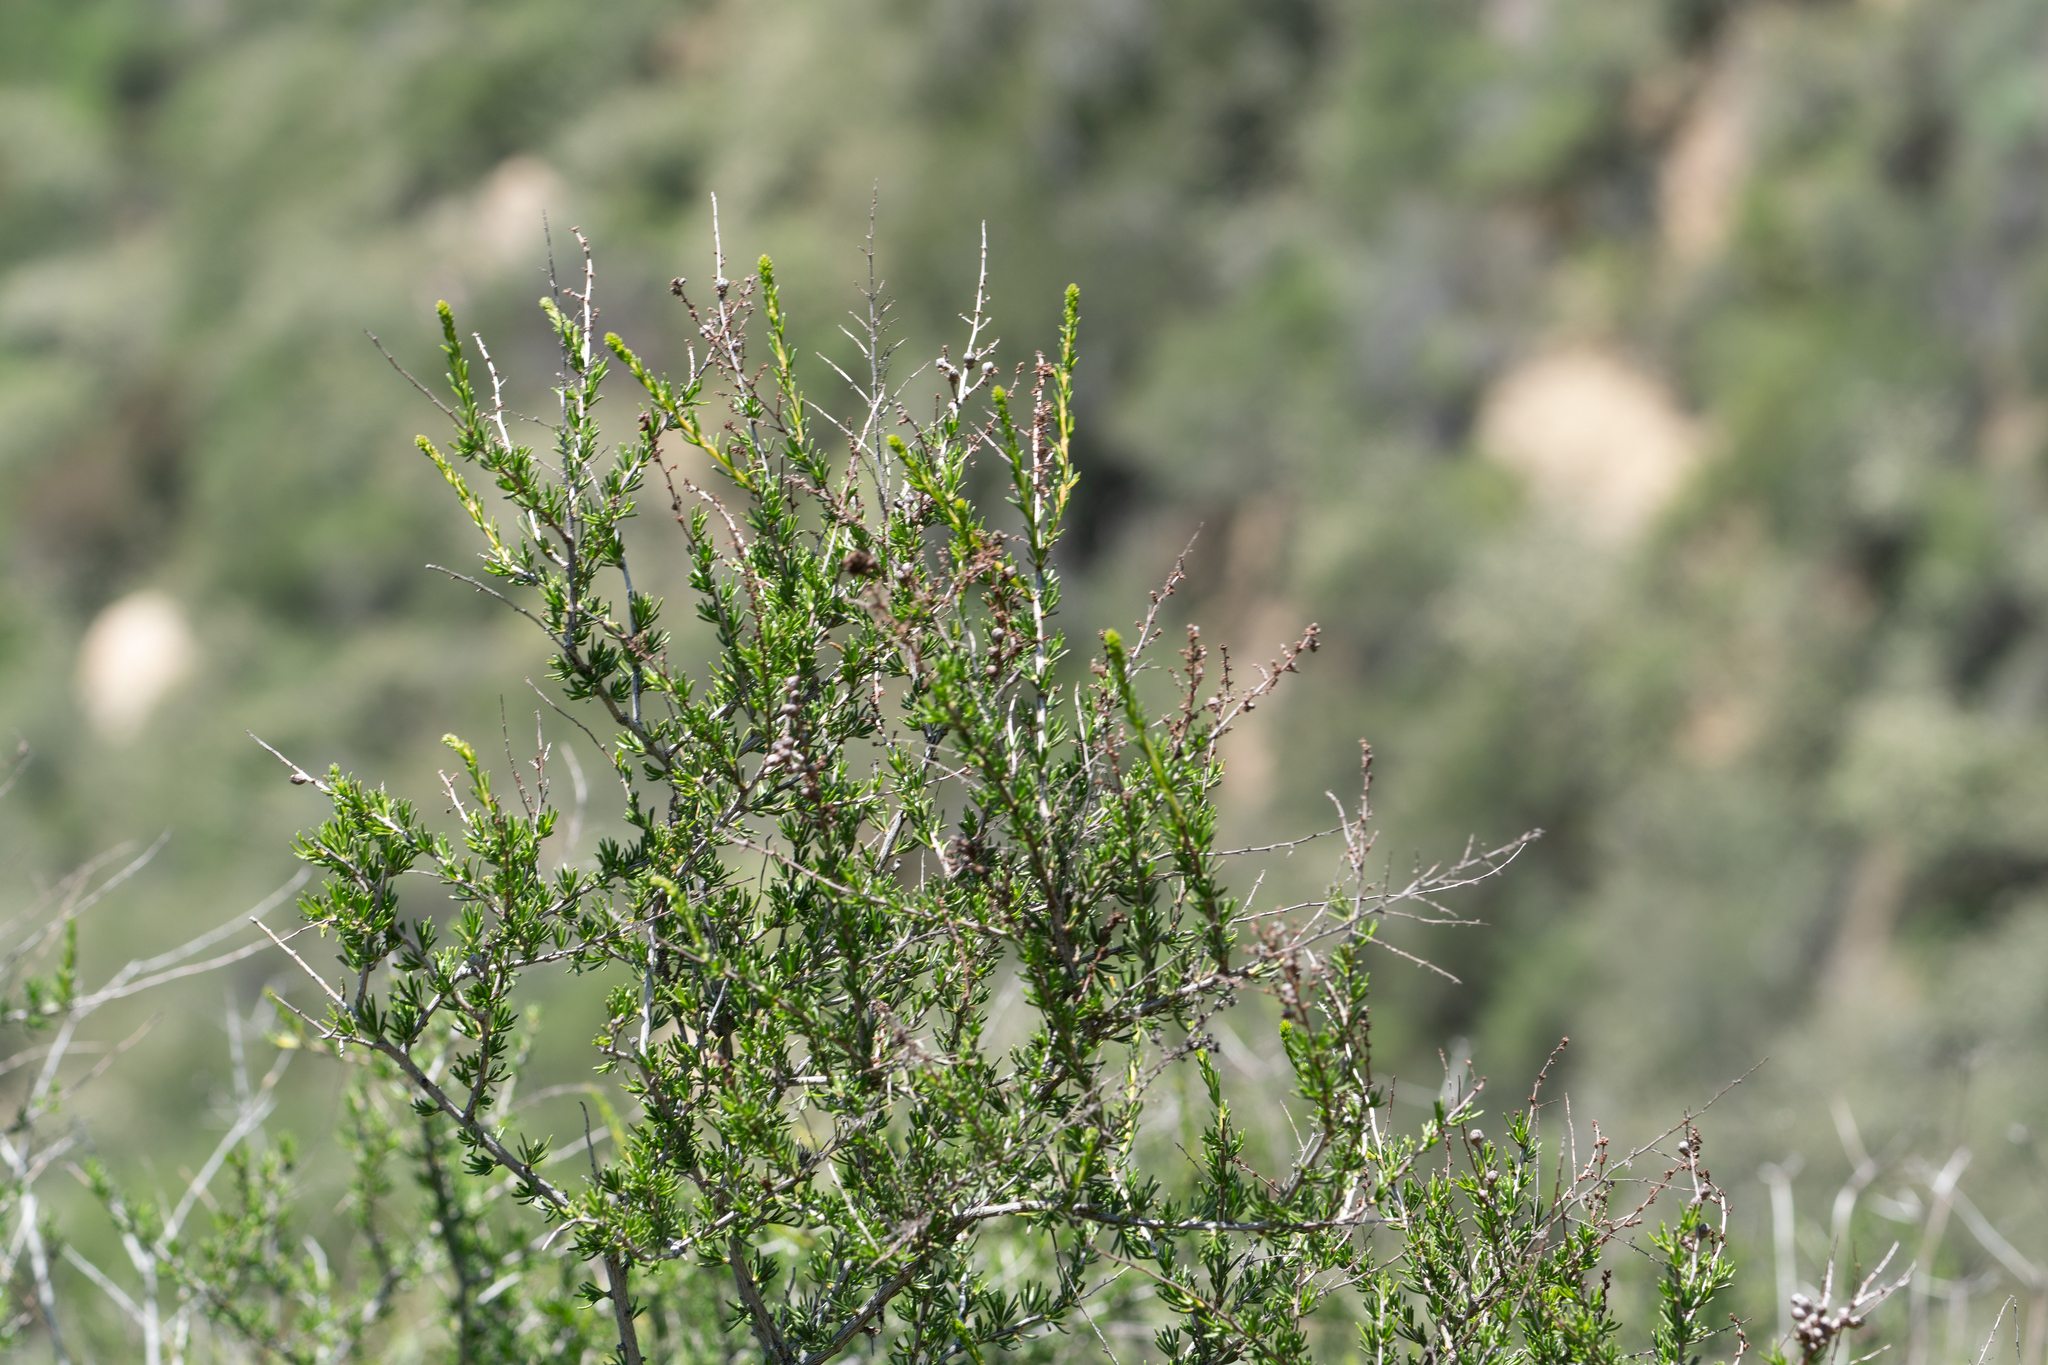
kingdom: Plantae
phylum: Tracheophyta
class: Magnoliopsida
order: Rosales
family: Rosaceae
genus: Adenostoma
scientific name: Adenostoma fasciculatum
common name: Chamise
